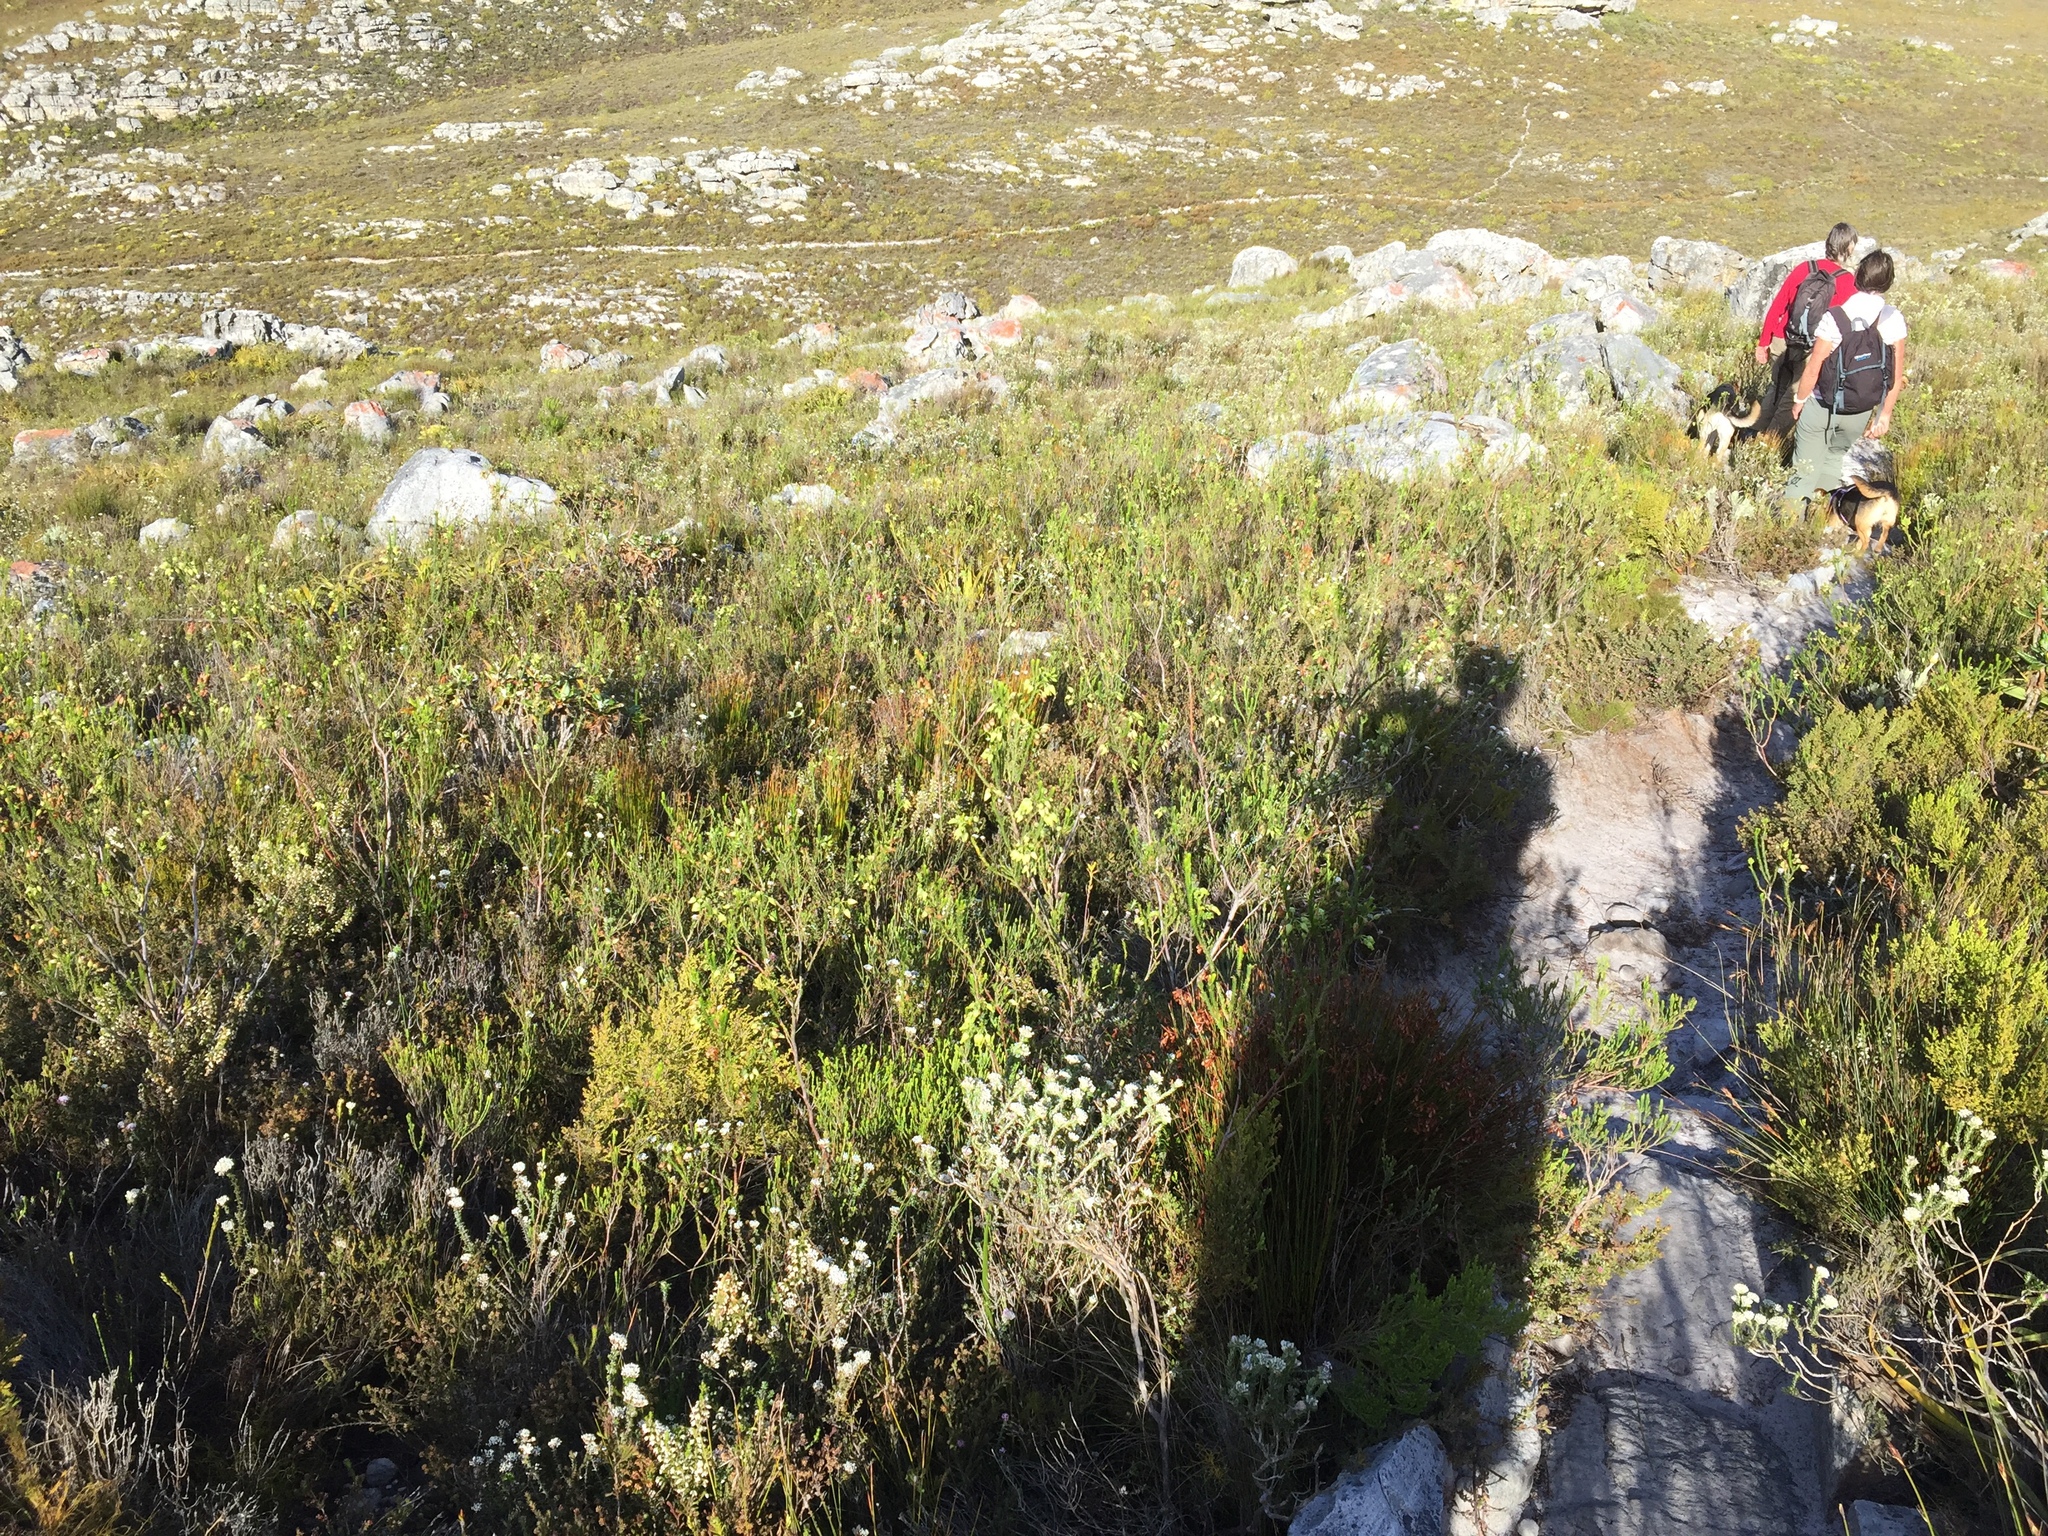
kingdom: Plantae
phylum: Tracheophyta
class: Magnoliopsida
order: Ericales
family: Ericaceae
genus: Erica
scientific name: Erica urna-viridis
